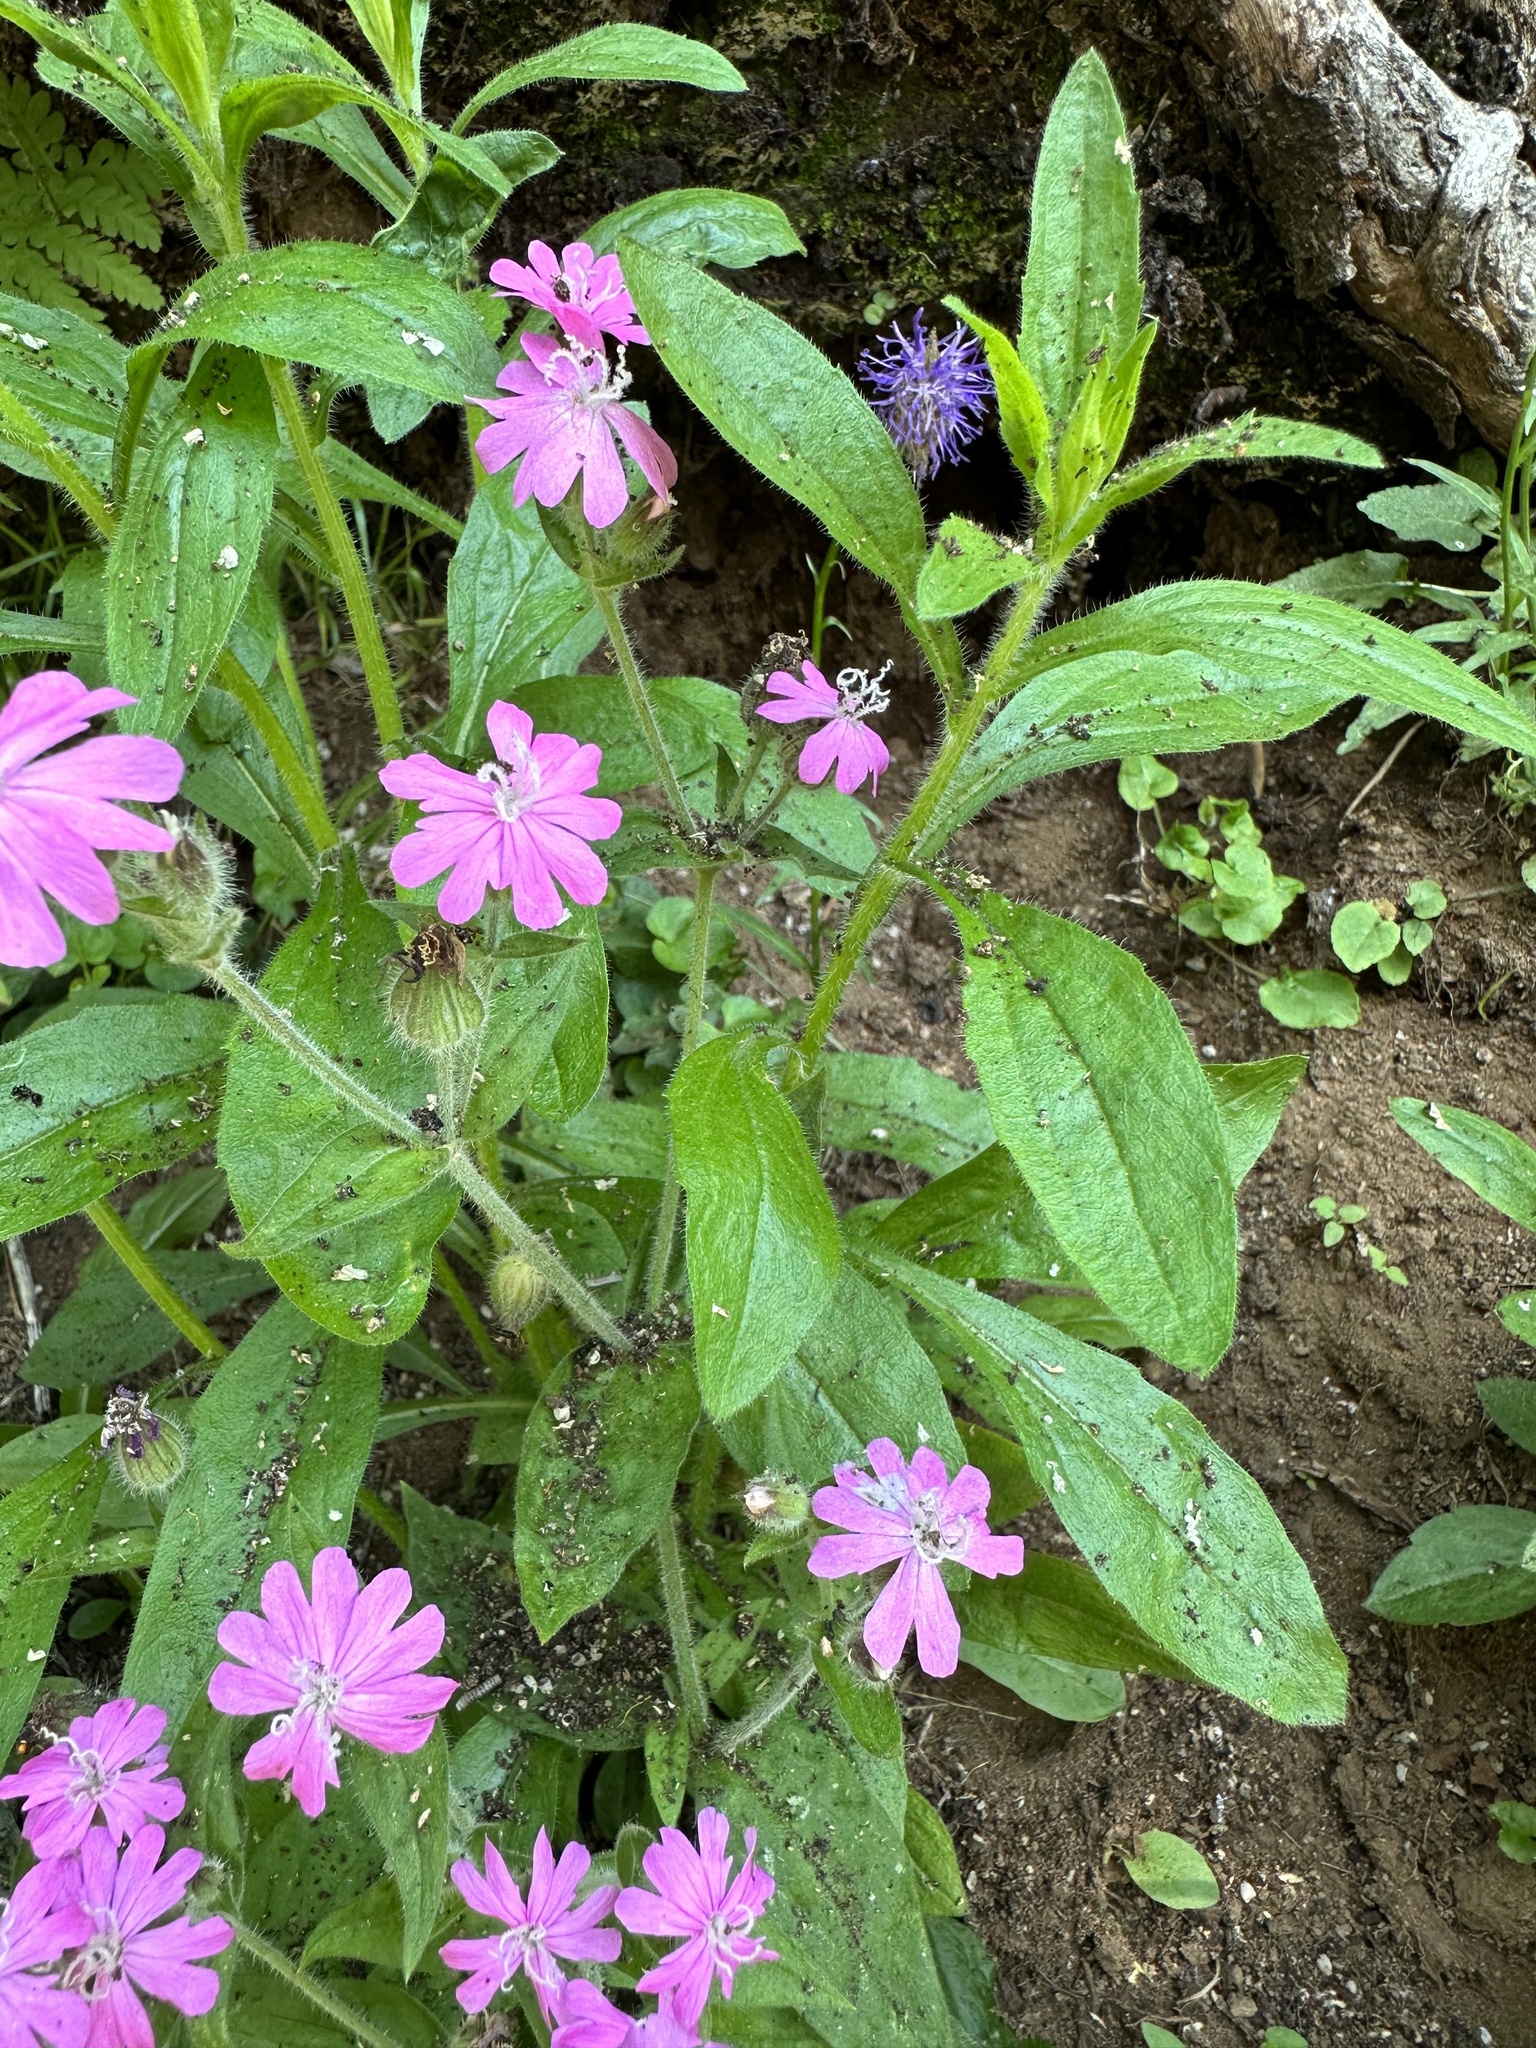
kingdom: Plantae
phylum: Tracheophyta
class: Magnoliopsida
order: Caryophyllales
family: Caryophyllaceae
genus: Silene
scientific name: Silene dioica
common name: Red campion
